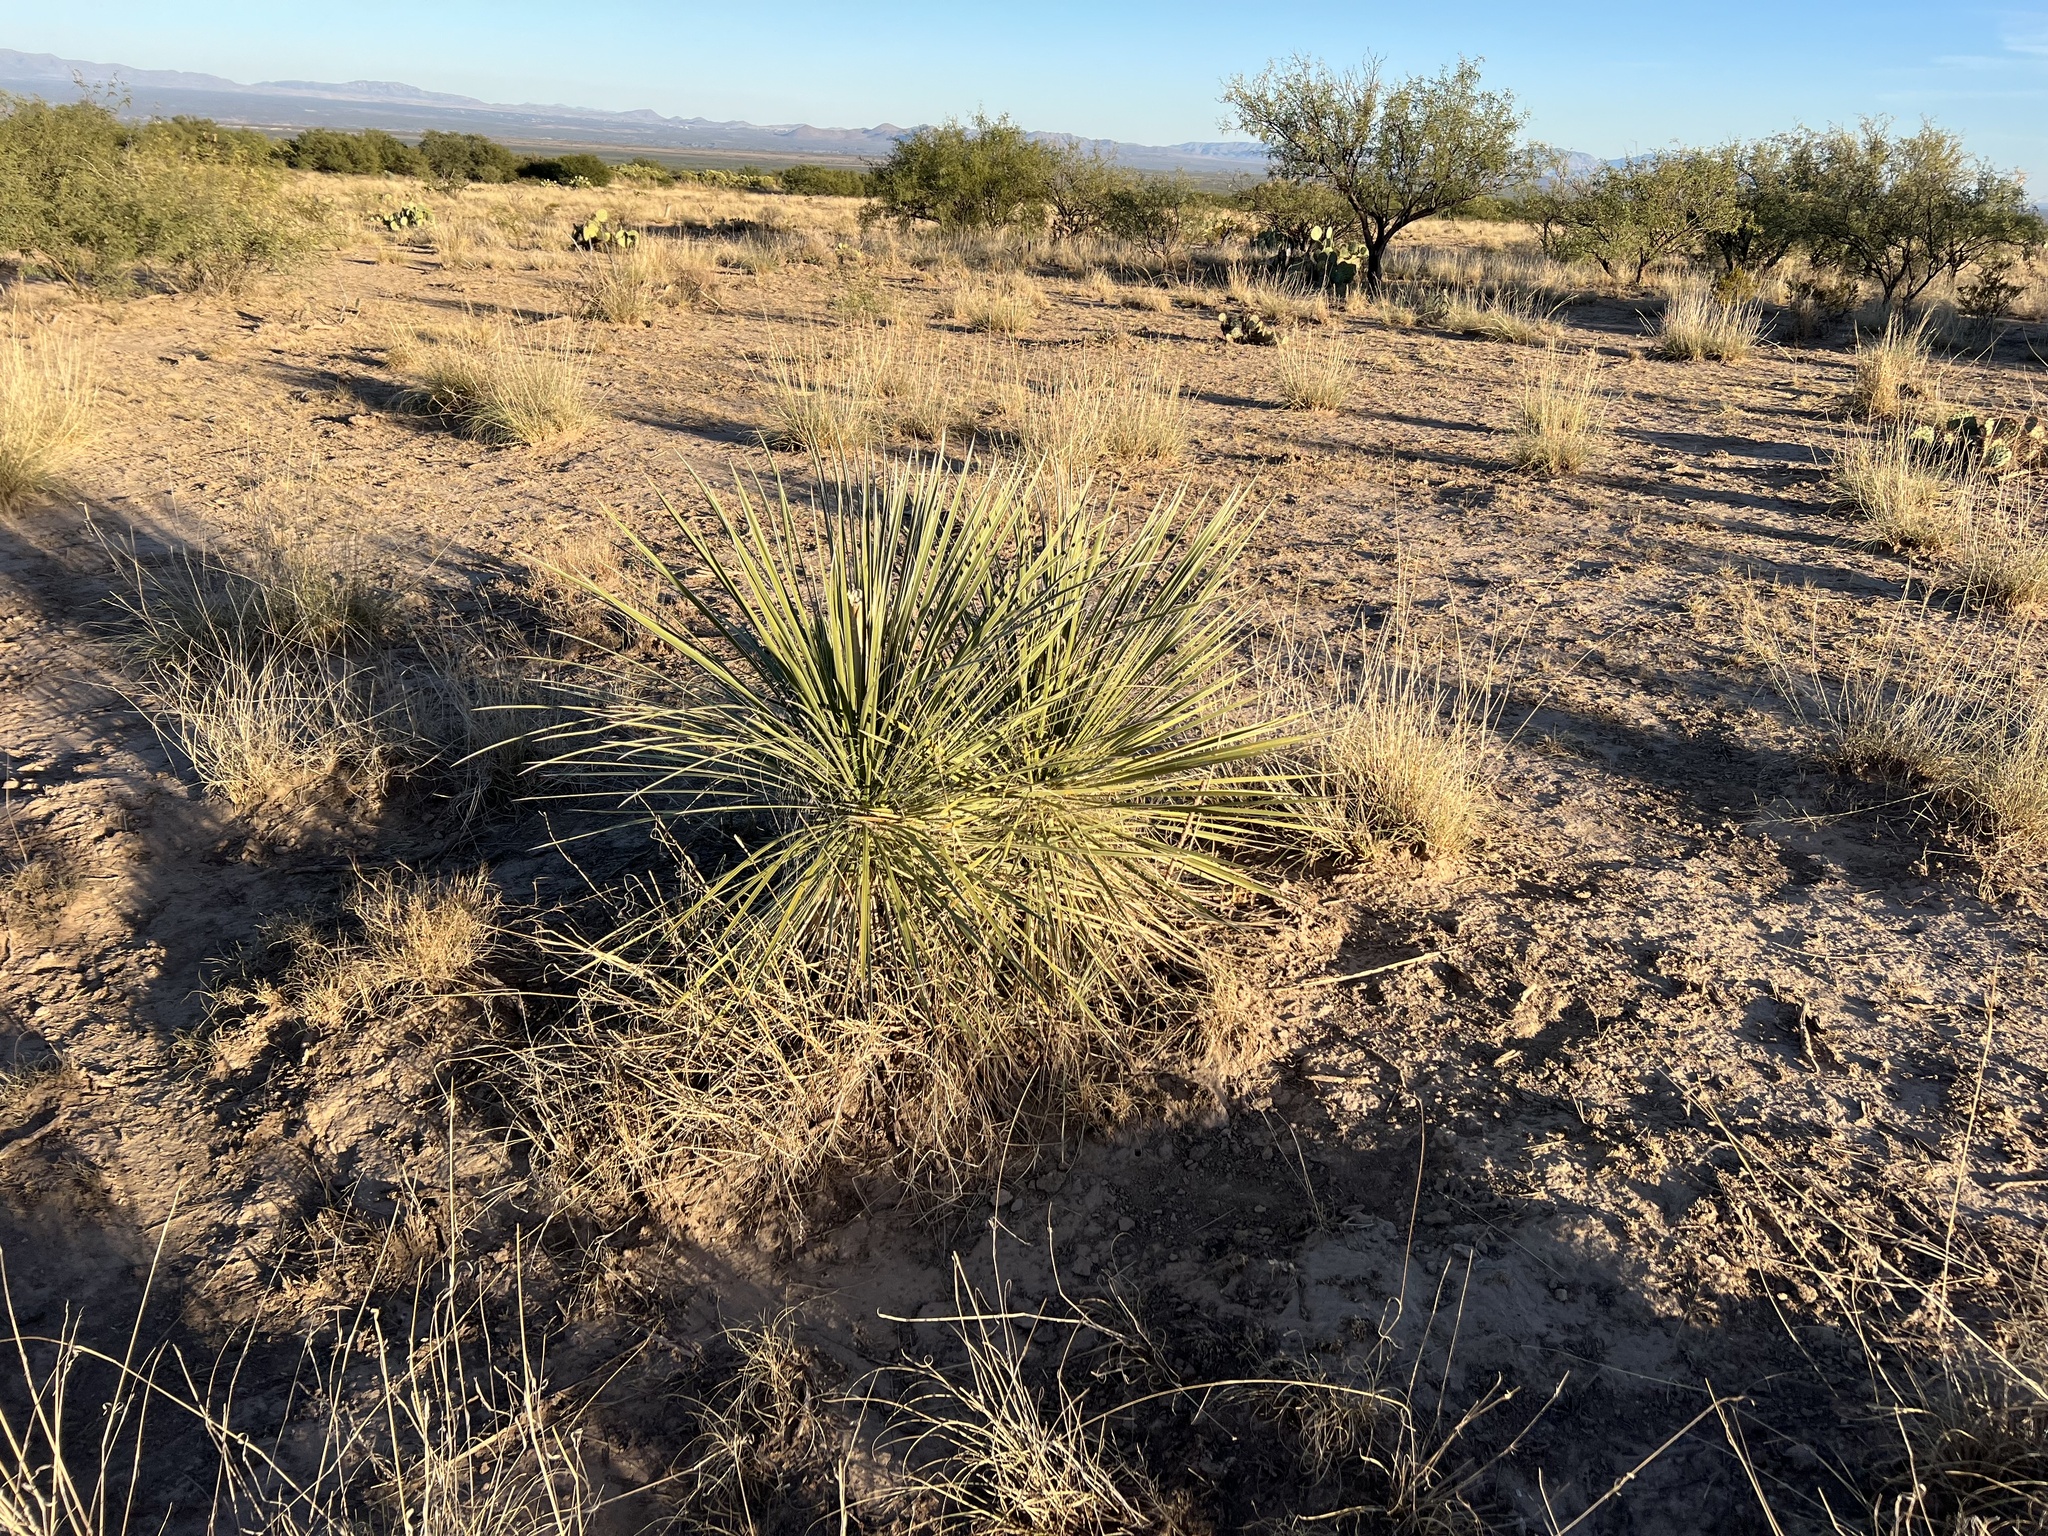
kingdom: Plantae
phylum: Tracheophyta
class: Liliopsida
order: Asparagales
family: Asparagaceae
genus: Yucca
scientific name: Yucca elata
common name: Palmella
